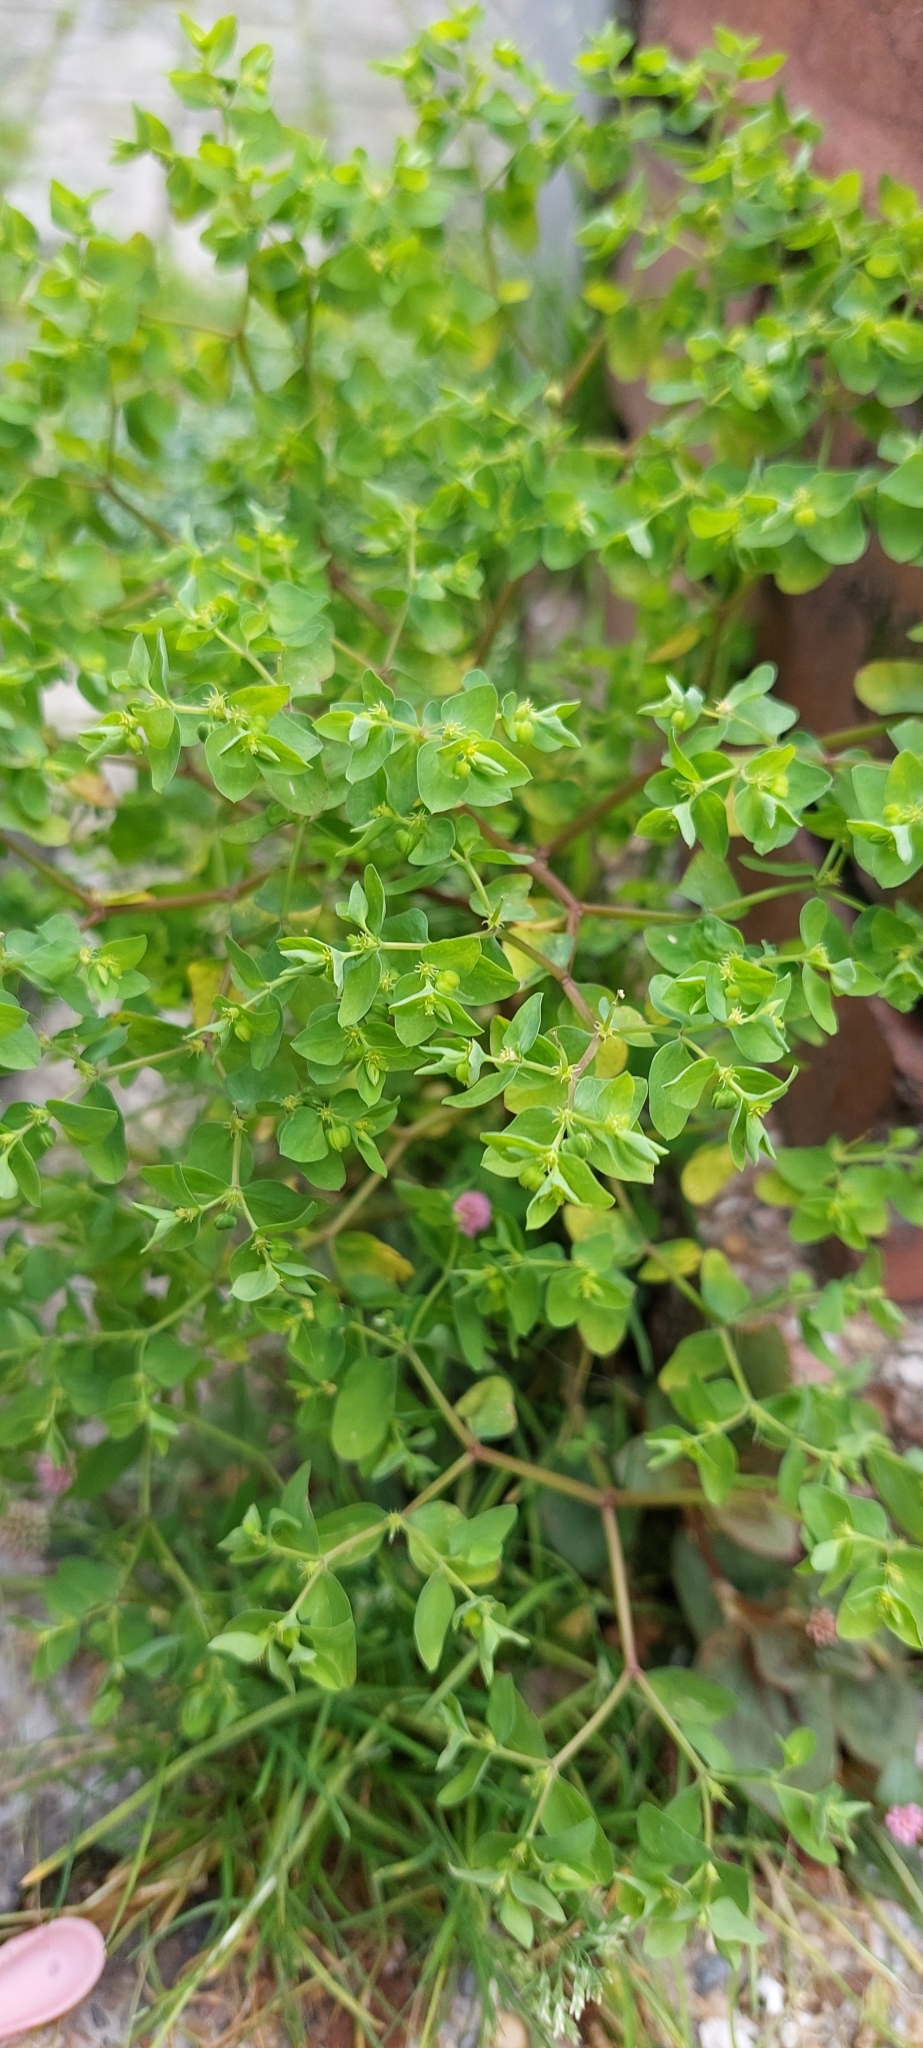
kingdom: Plantae
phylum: Tracheophyta
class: Magnoliopsida
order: Malpighiales
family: Euphorbiaceae
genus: Euphorbia
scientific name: Euphorbia peplus
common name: Petty spurge
